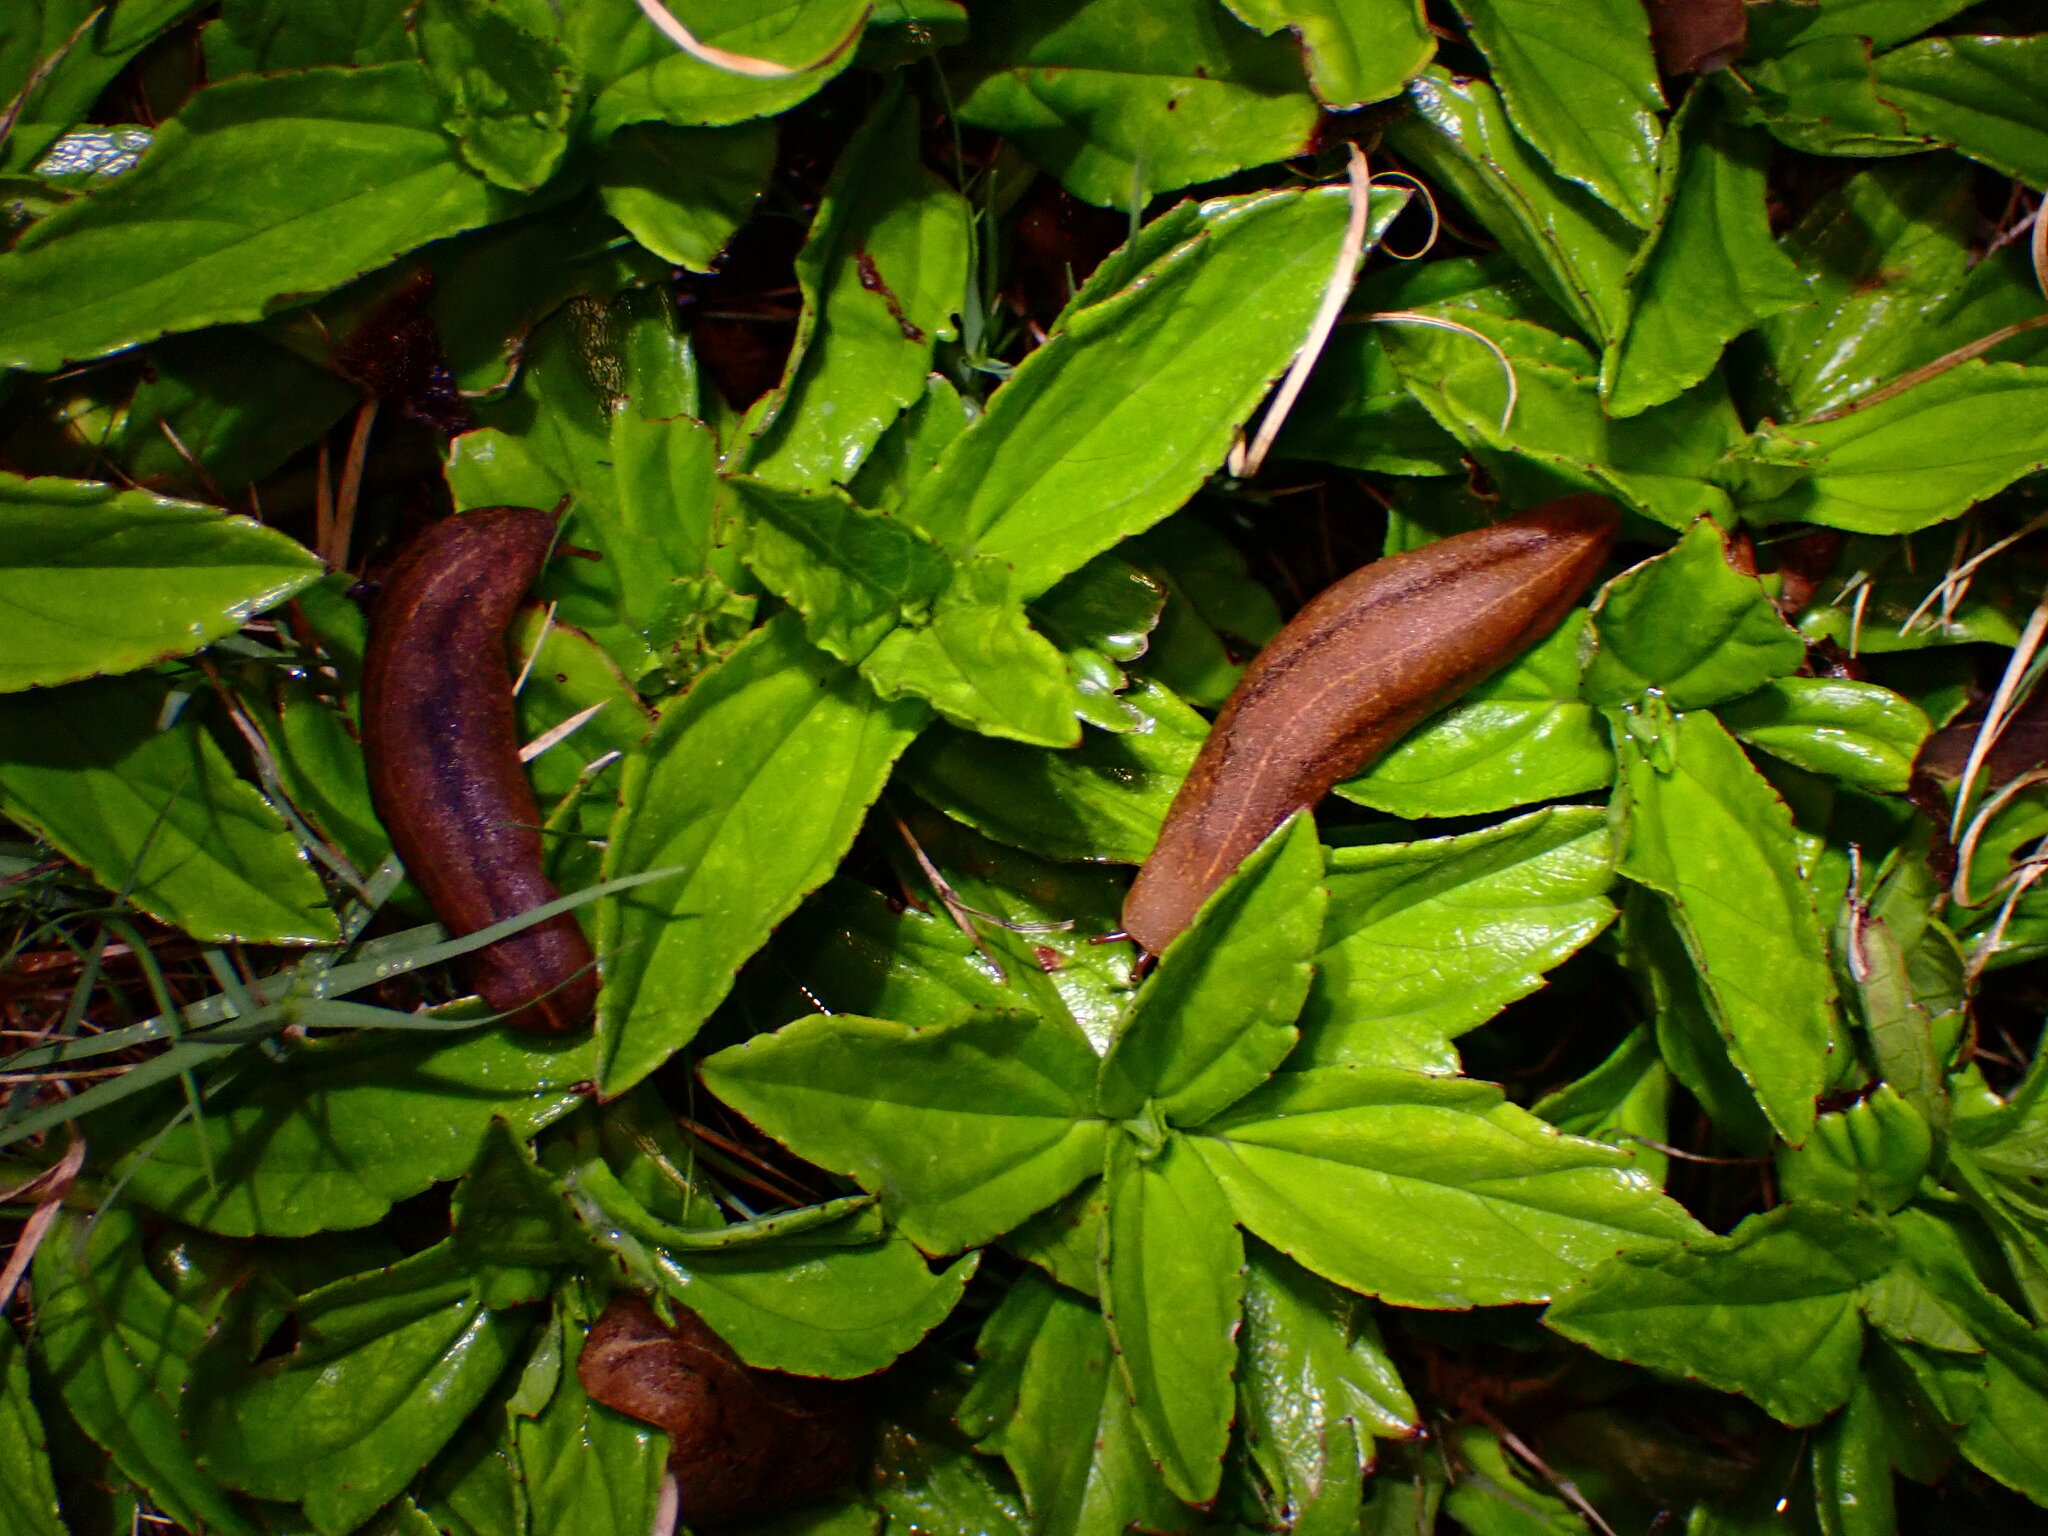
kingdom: Animalia
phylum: Mollusca
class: Gastropoda
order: Systellommatophora
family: Veronicellidae
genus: Veronicella
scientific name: Veronicella cubensis
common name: Two striped slug
